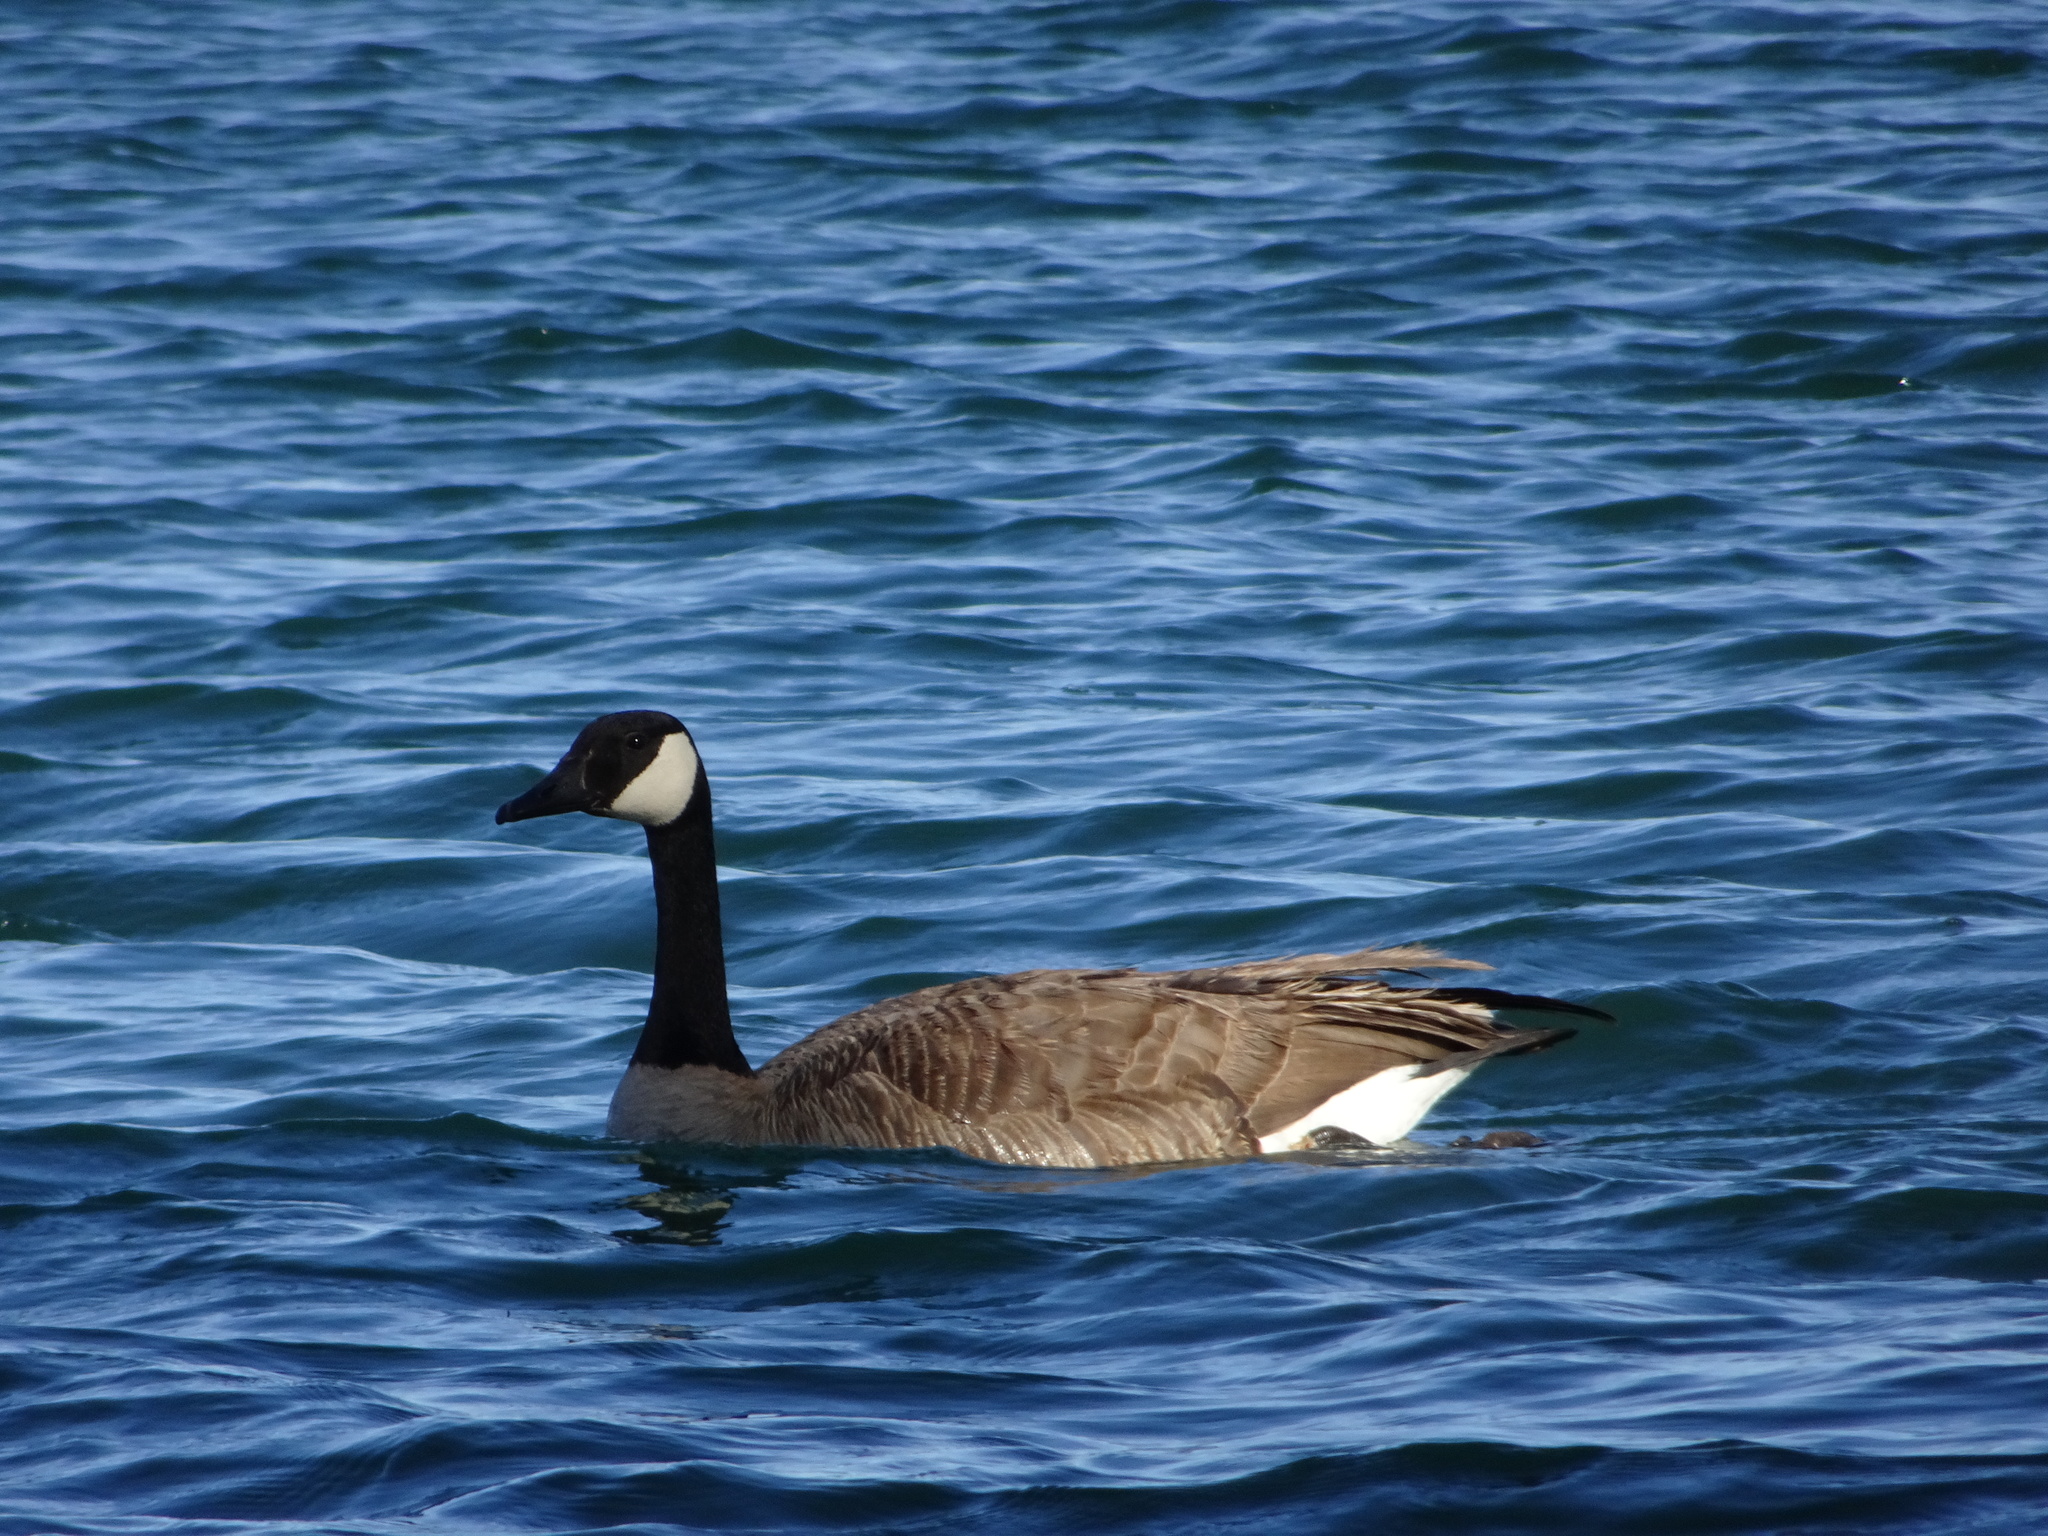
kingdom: Animalia
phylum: Chordata
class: Aves
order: Anseriformes
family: Anatidae
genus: Branta
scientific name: Branta canadensis
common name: Canada goose
